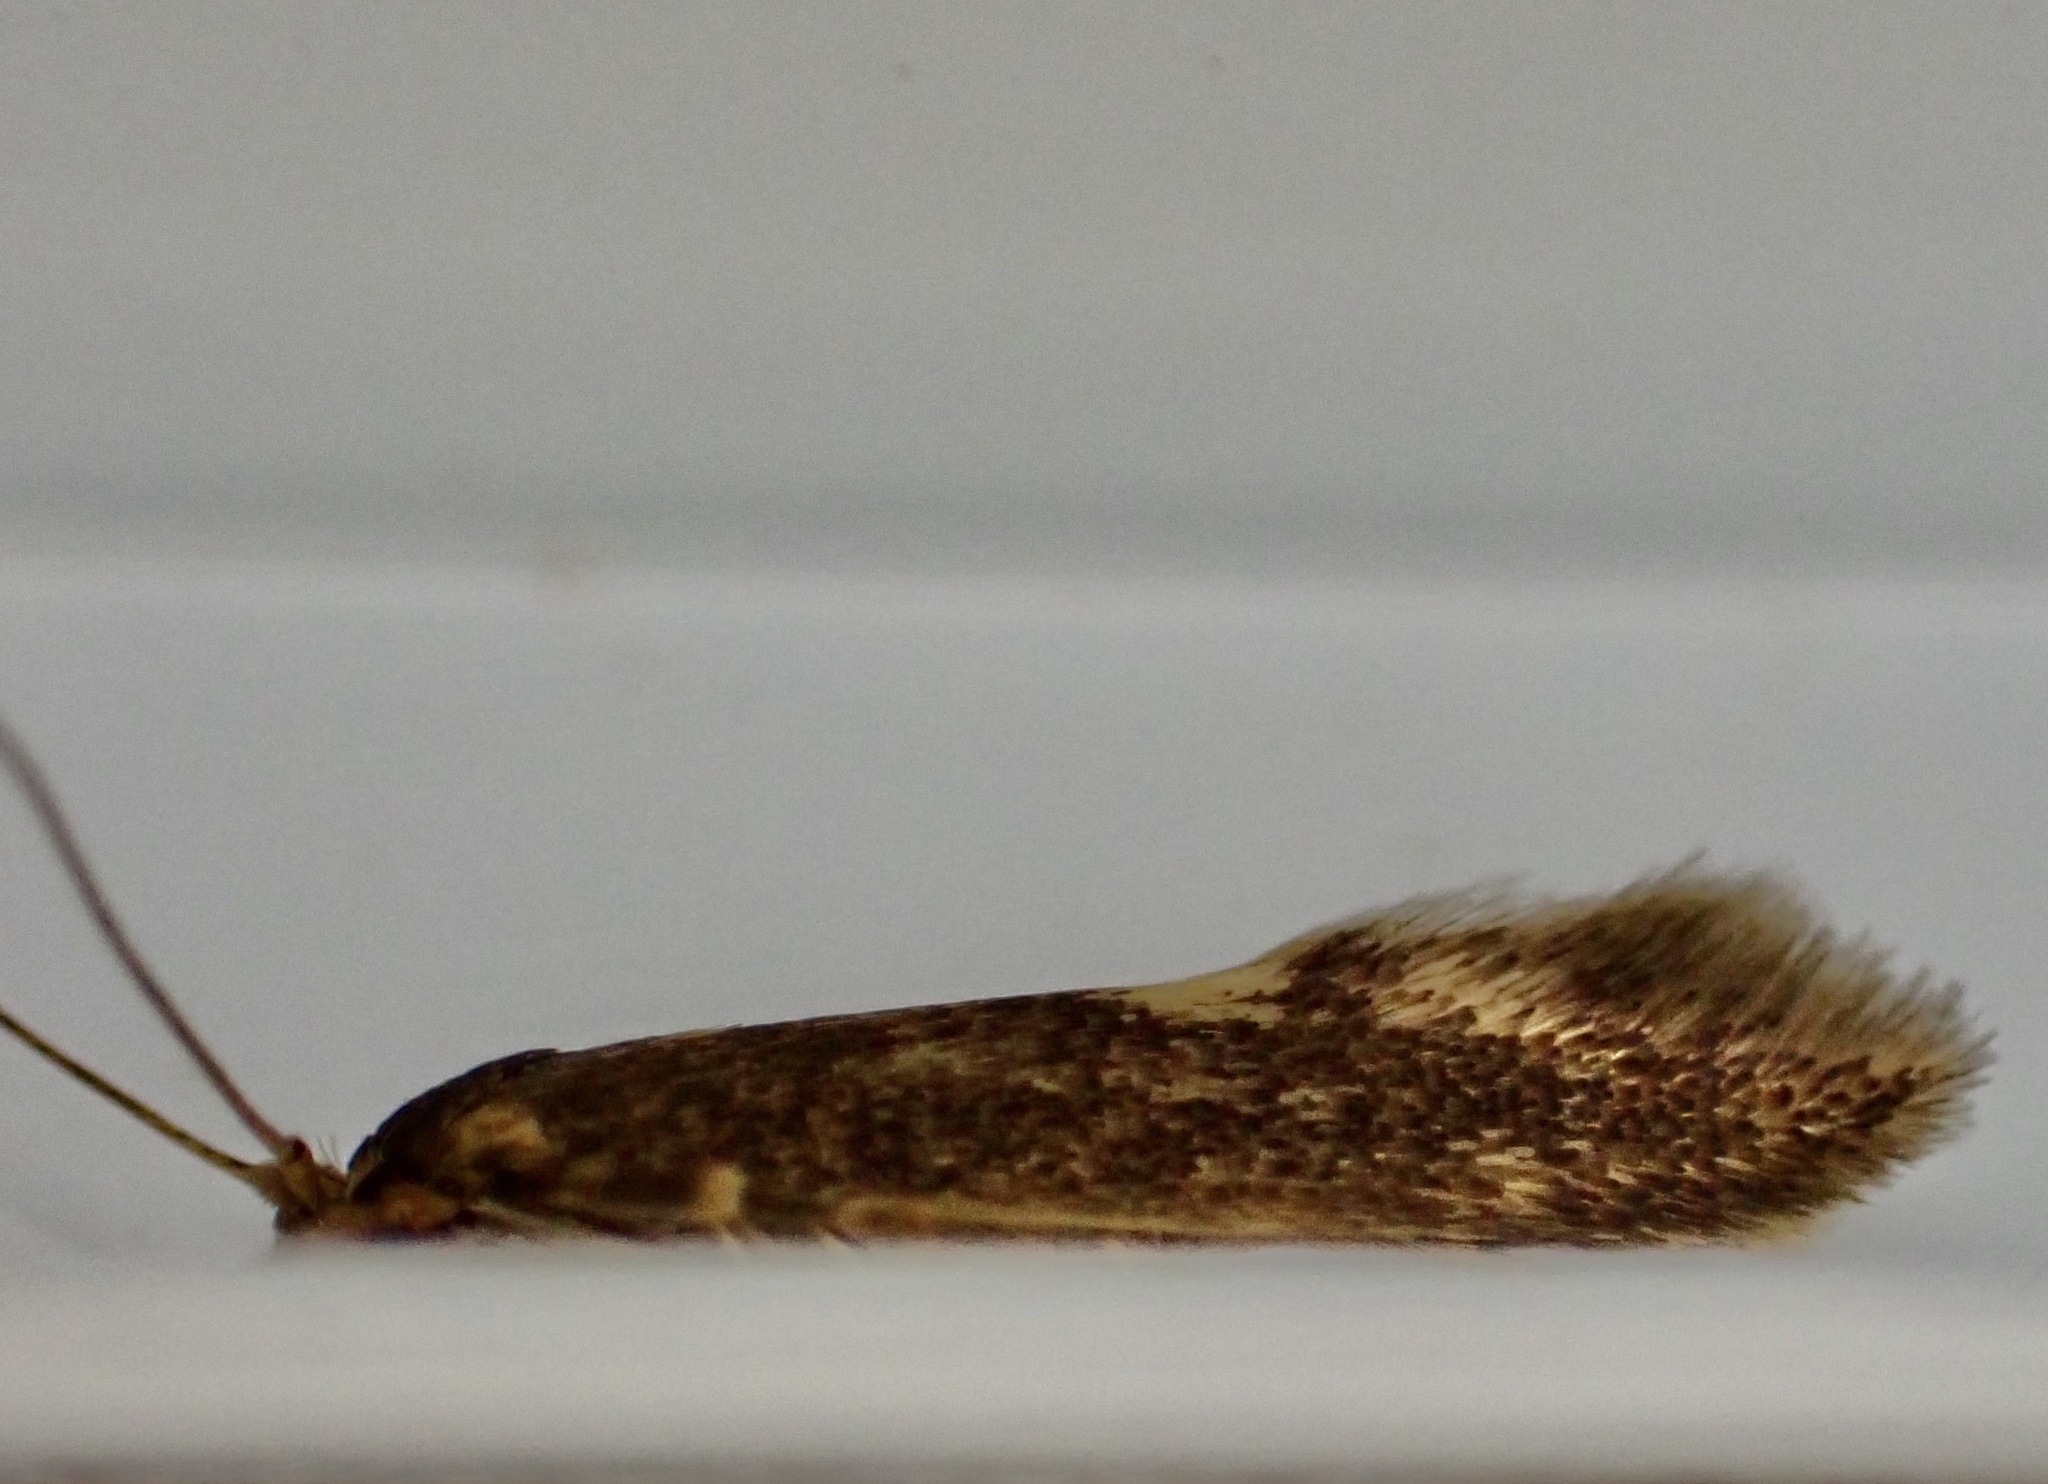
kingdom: Animalia
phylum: Arthropoda
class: Insecta
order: Lepidoptera
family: Tineidae
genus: Opogona
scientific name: Opogona omoscopa
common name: Moth
